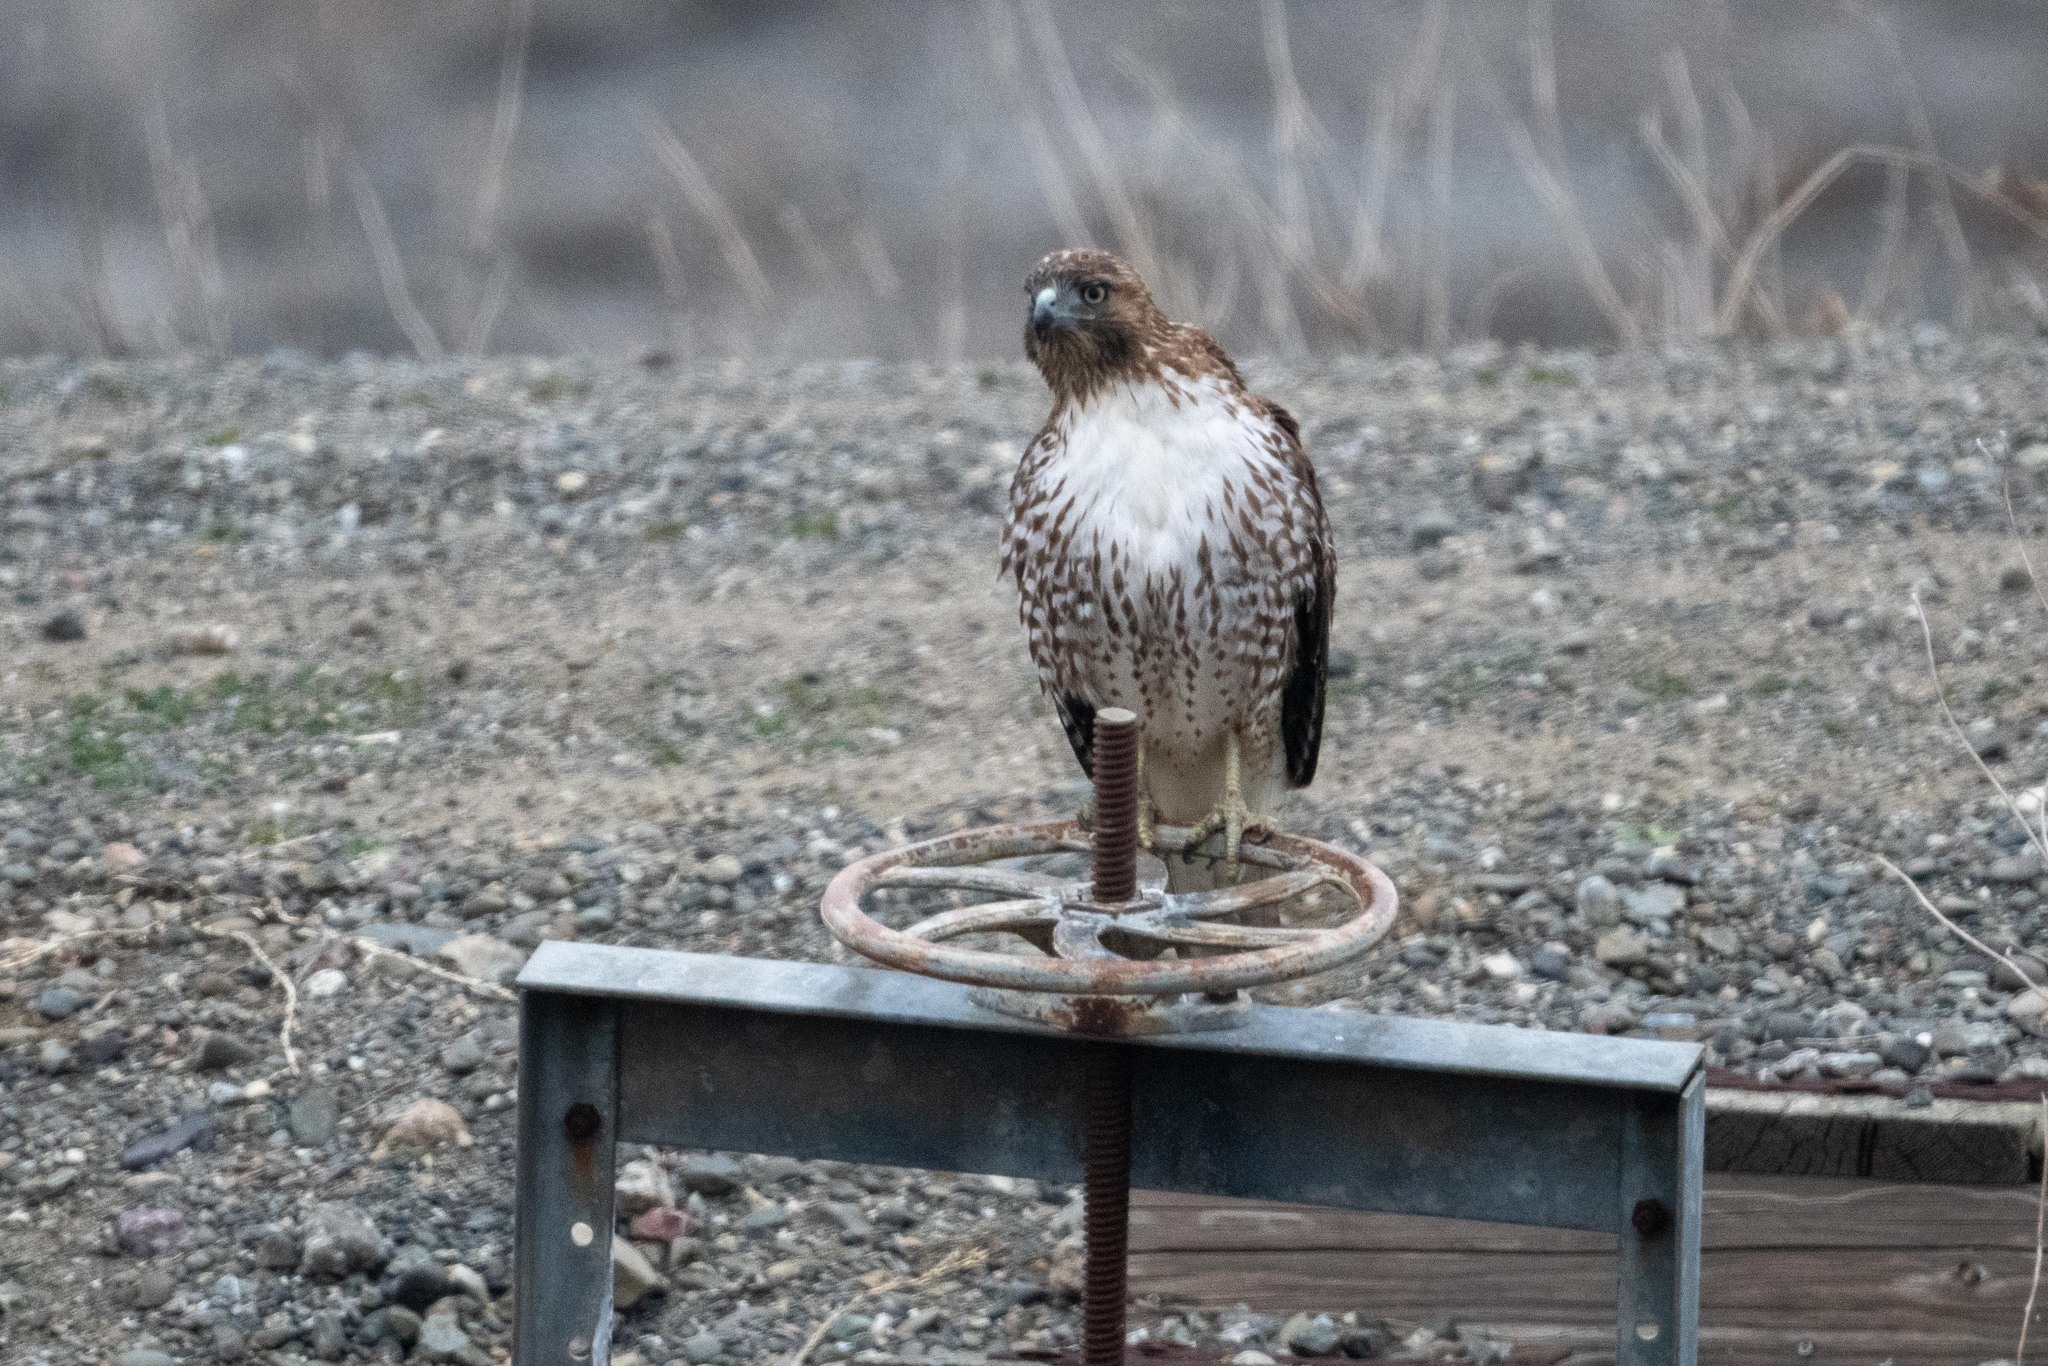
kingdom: Animalia
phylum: Chordata
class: Aves
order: Accipitriformes
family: Accipitridae
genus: Buteo
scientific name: Buteo jamaicensis
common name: Red-tailed hawk
